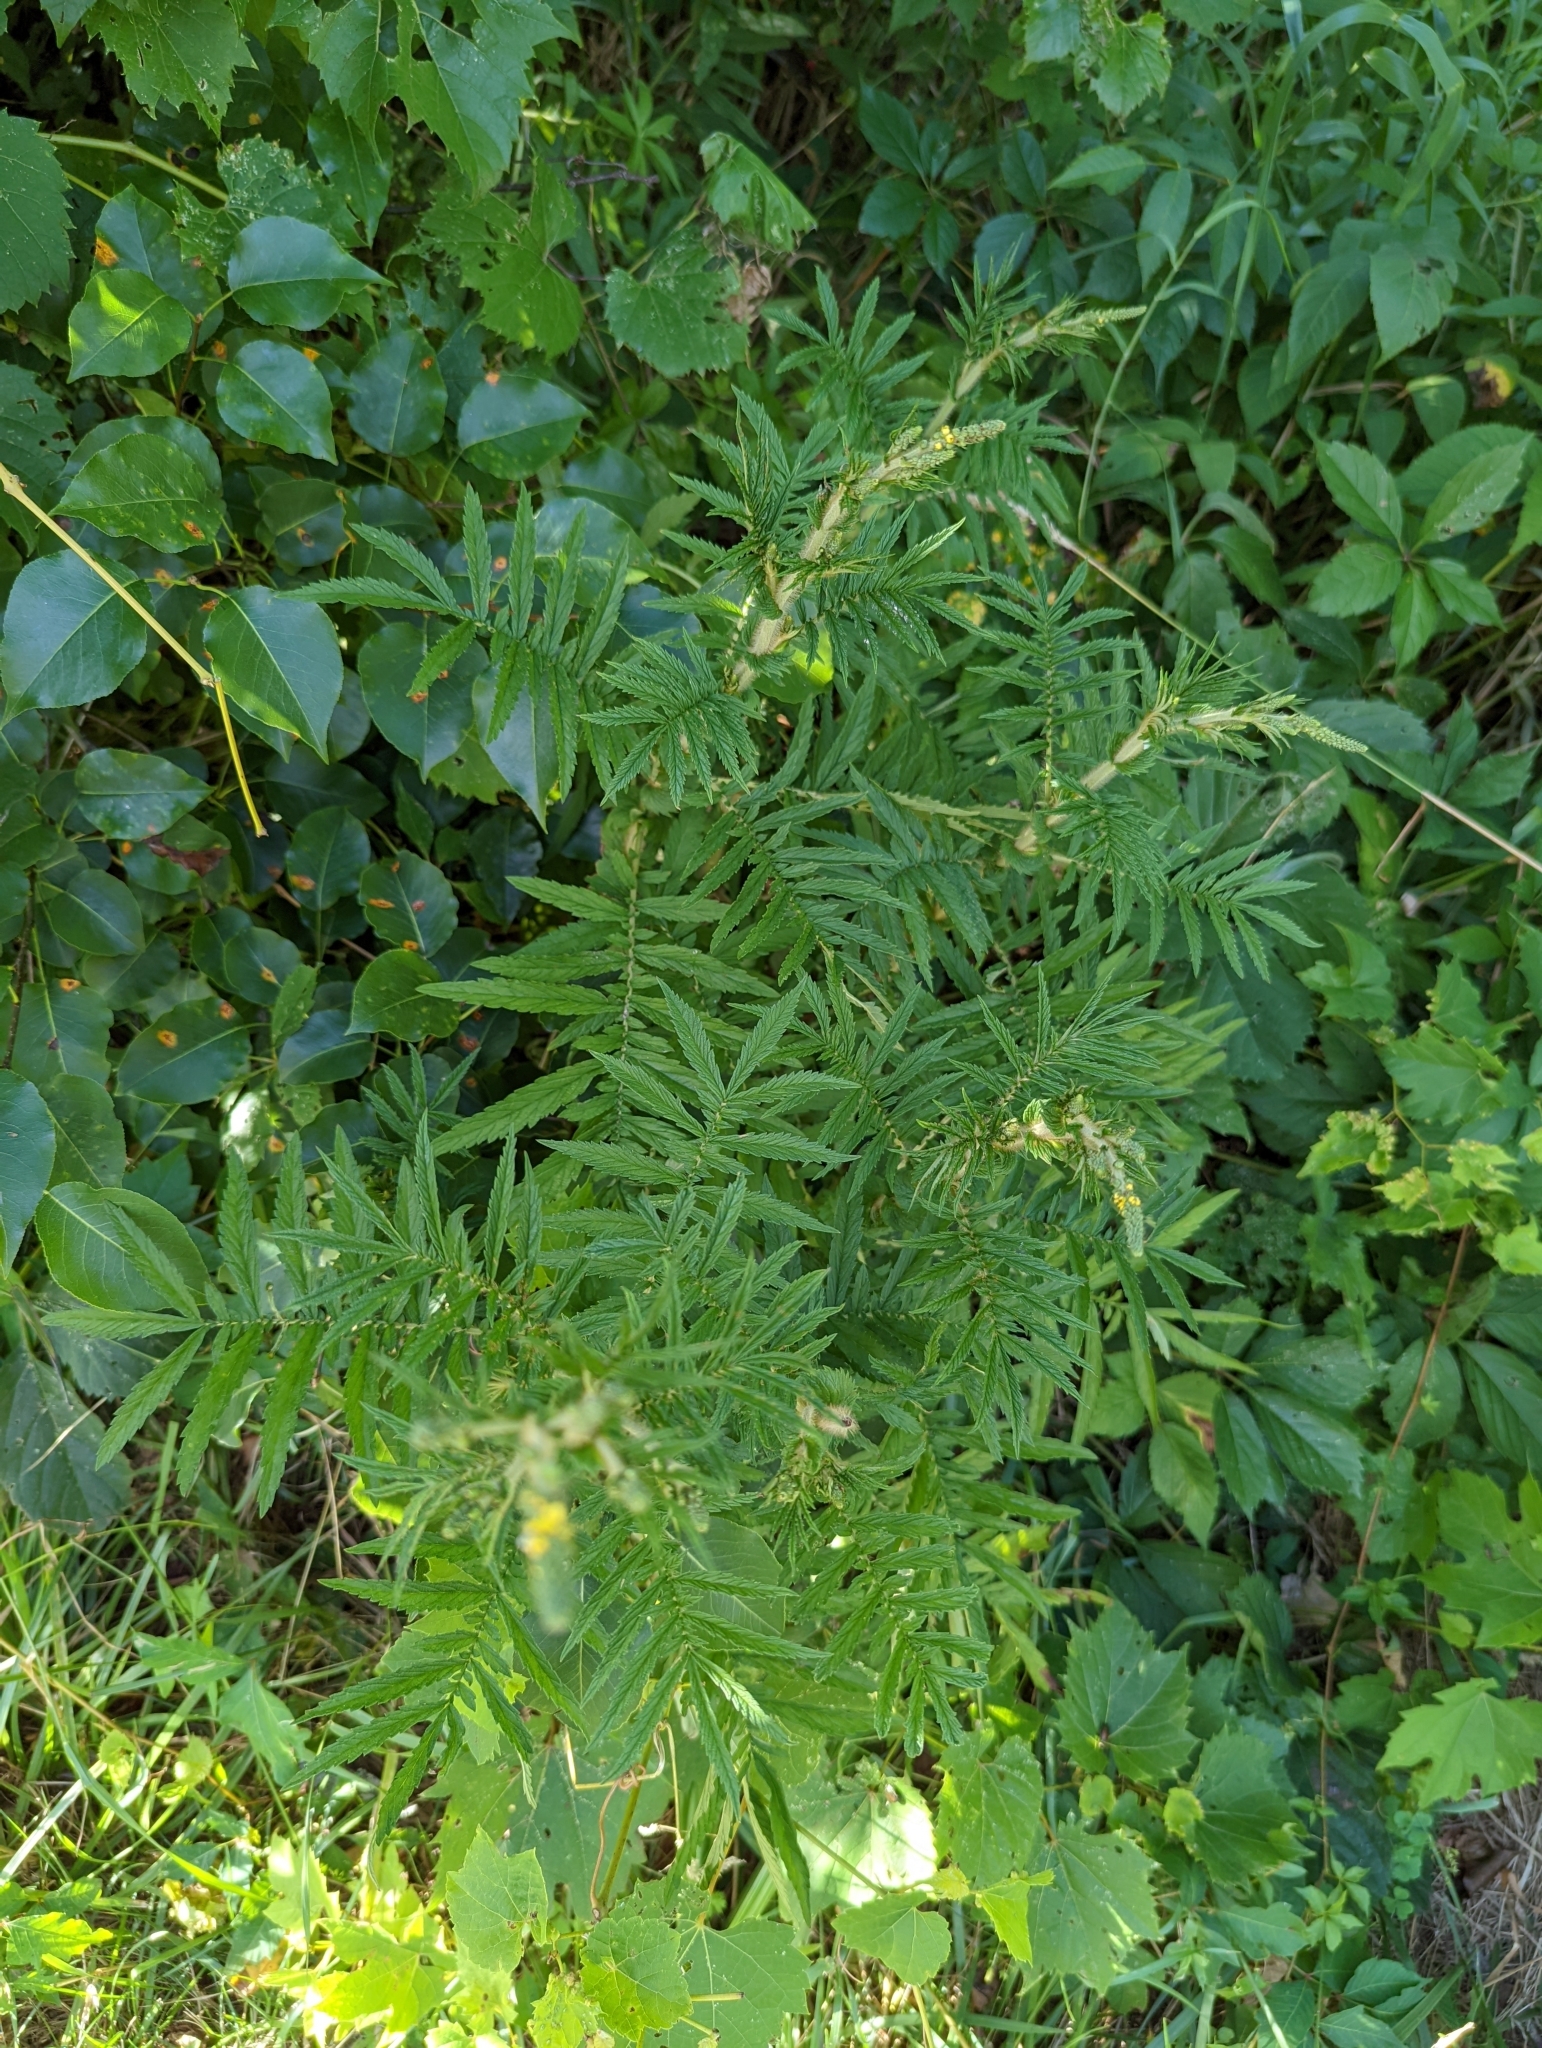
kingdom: Plantae
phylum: Tracheophyta
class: Magnoliopsida
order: Rosales
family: Rosaceae
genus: Agrimonia
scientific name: Agrimonia parviflora
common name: Harvest-lice
